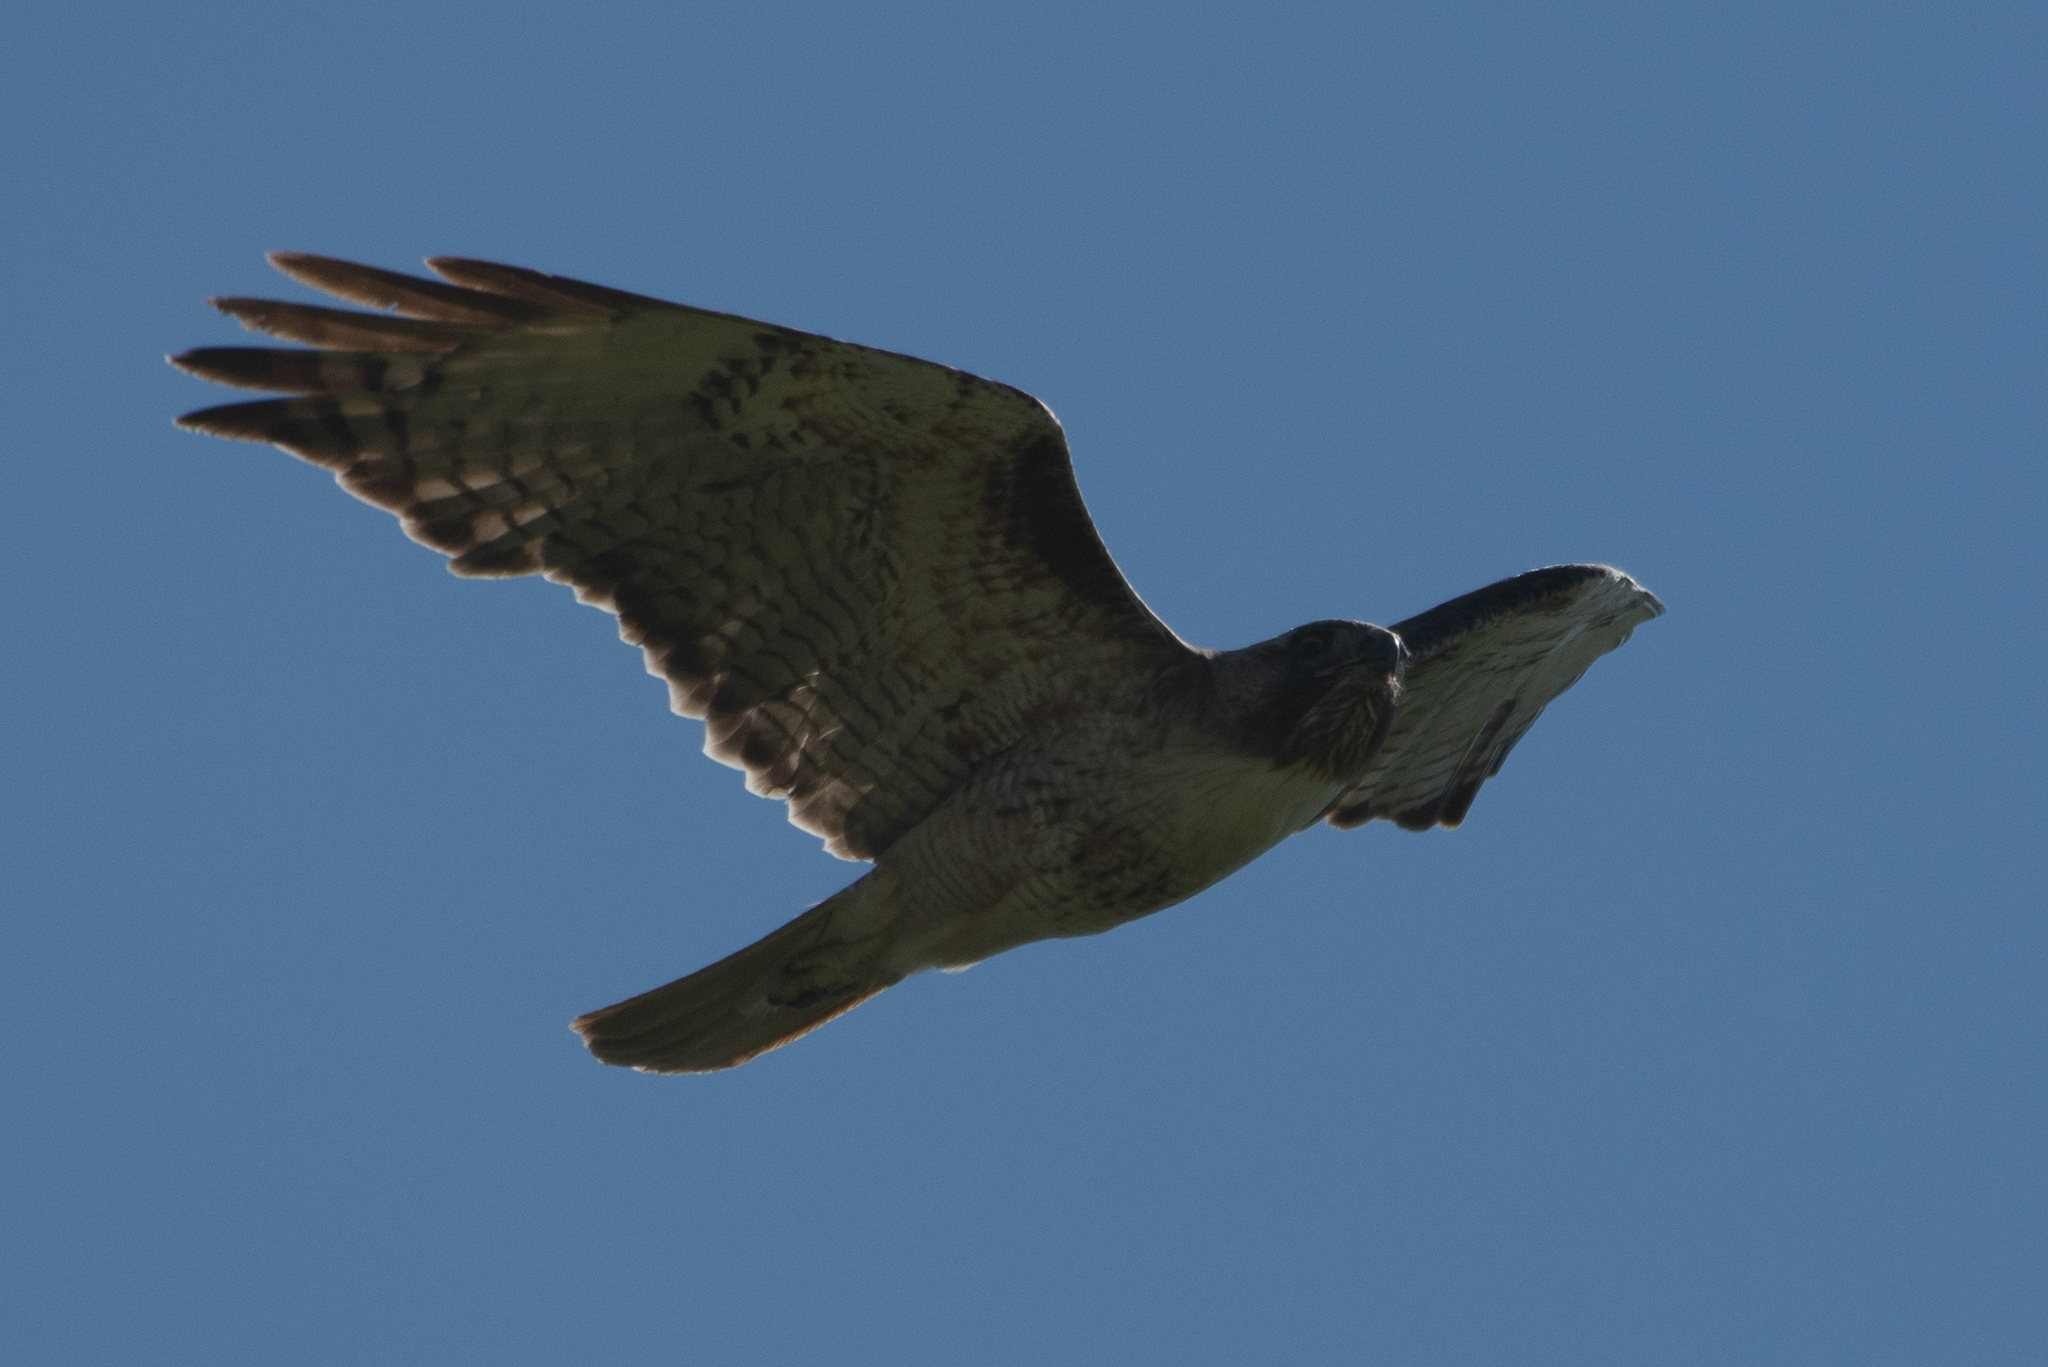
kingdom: Animalia
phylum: Chordata
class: Aves
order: Accipitriformes
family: Accipitridae
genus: Buteo
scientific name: Buteo jamaicensis
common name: Red-tailed hawk
